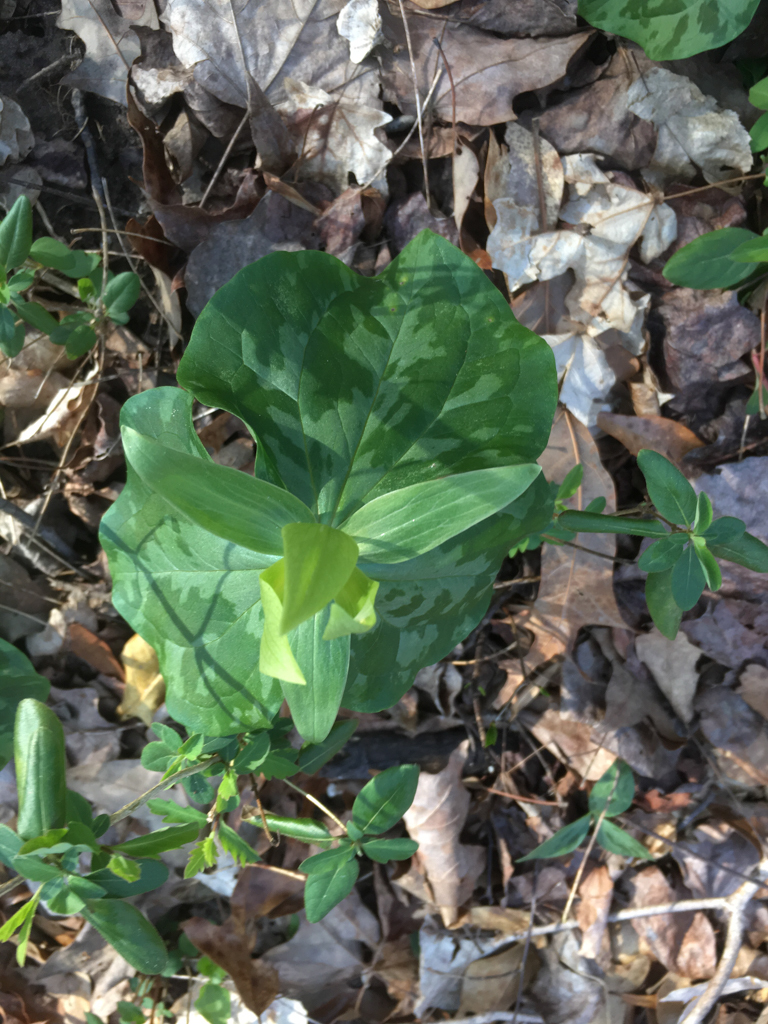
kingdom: Plantae
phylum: Tracheophyta
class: Liliopsida
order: Liliales
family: Melanthiaceae
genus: Trillium
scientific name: Trillium cuneatum
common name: Cuneate trillium
